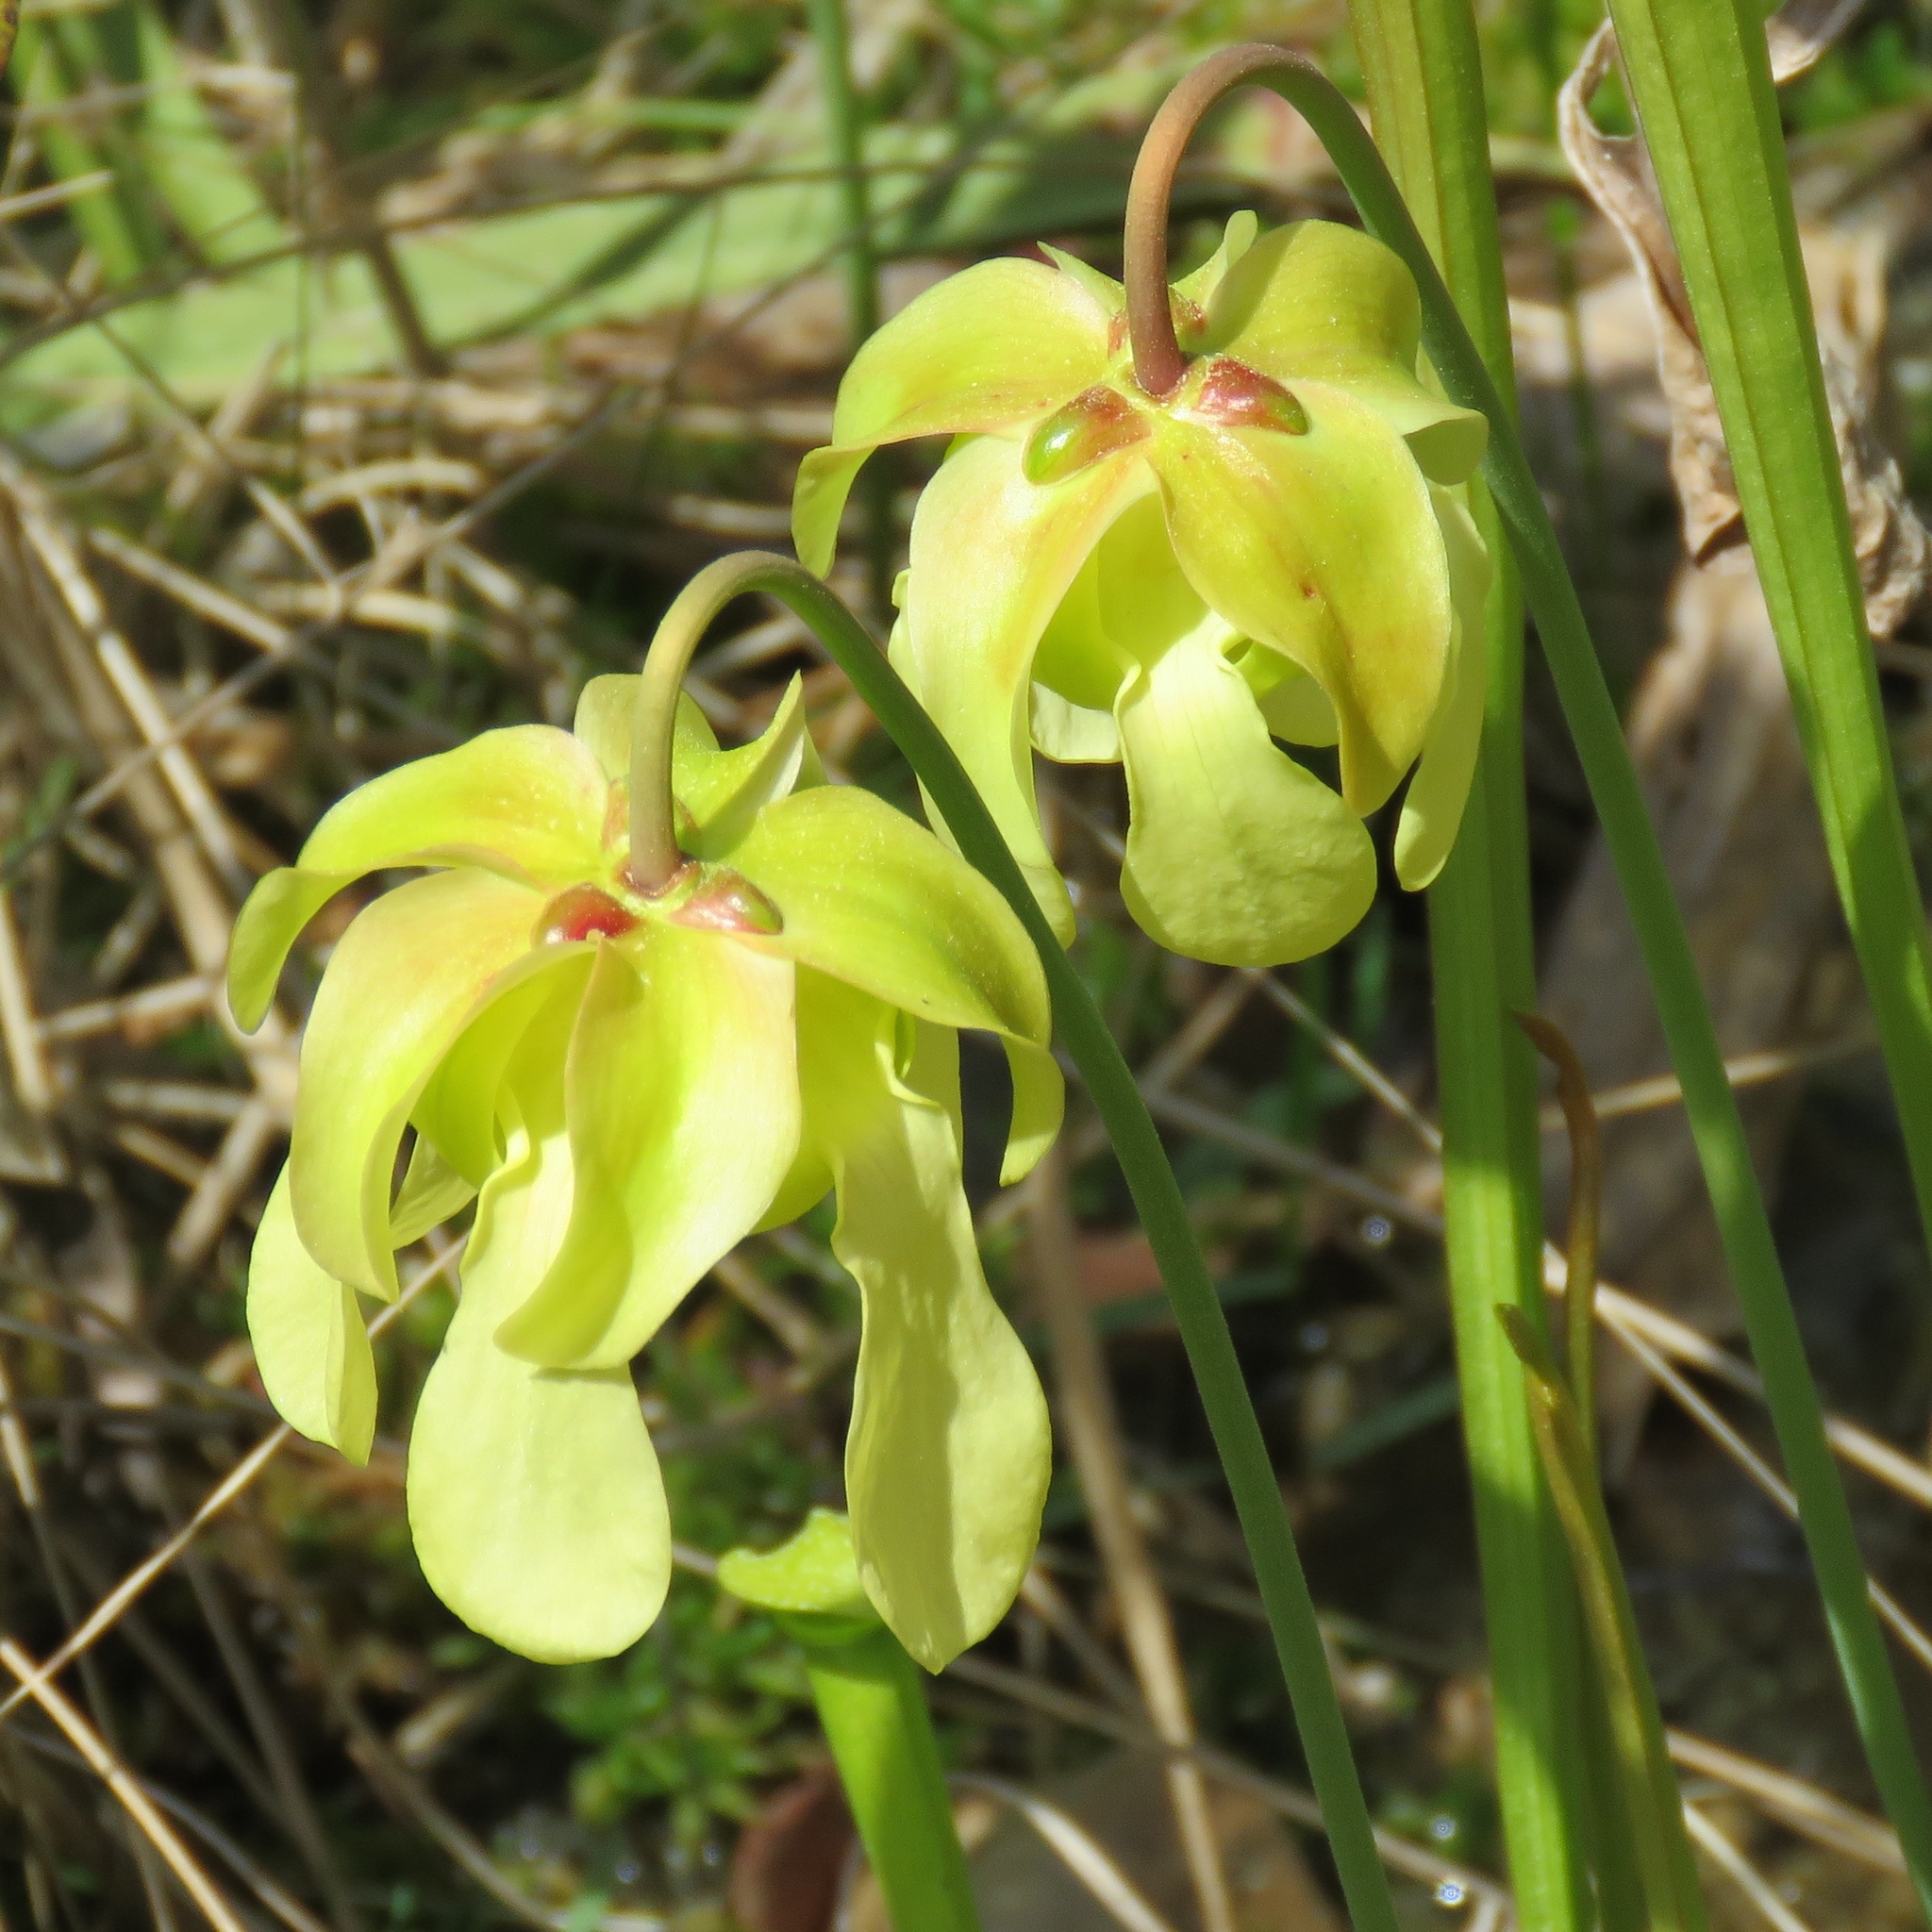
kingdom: Plantae
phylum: Tracheophyta
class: Magnoliopsida
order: Ericales
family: Sarraceniaceae
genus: Sarracenia
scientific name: Sarracenia alata
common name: Yellow trumpets
